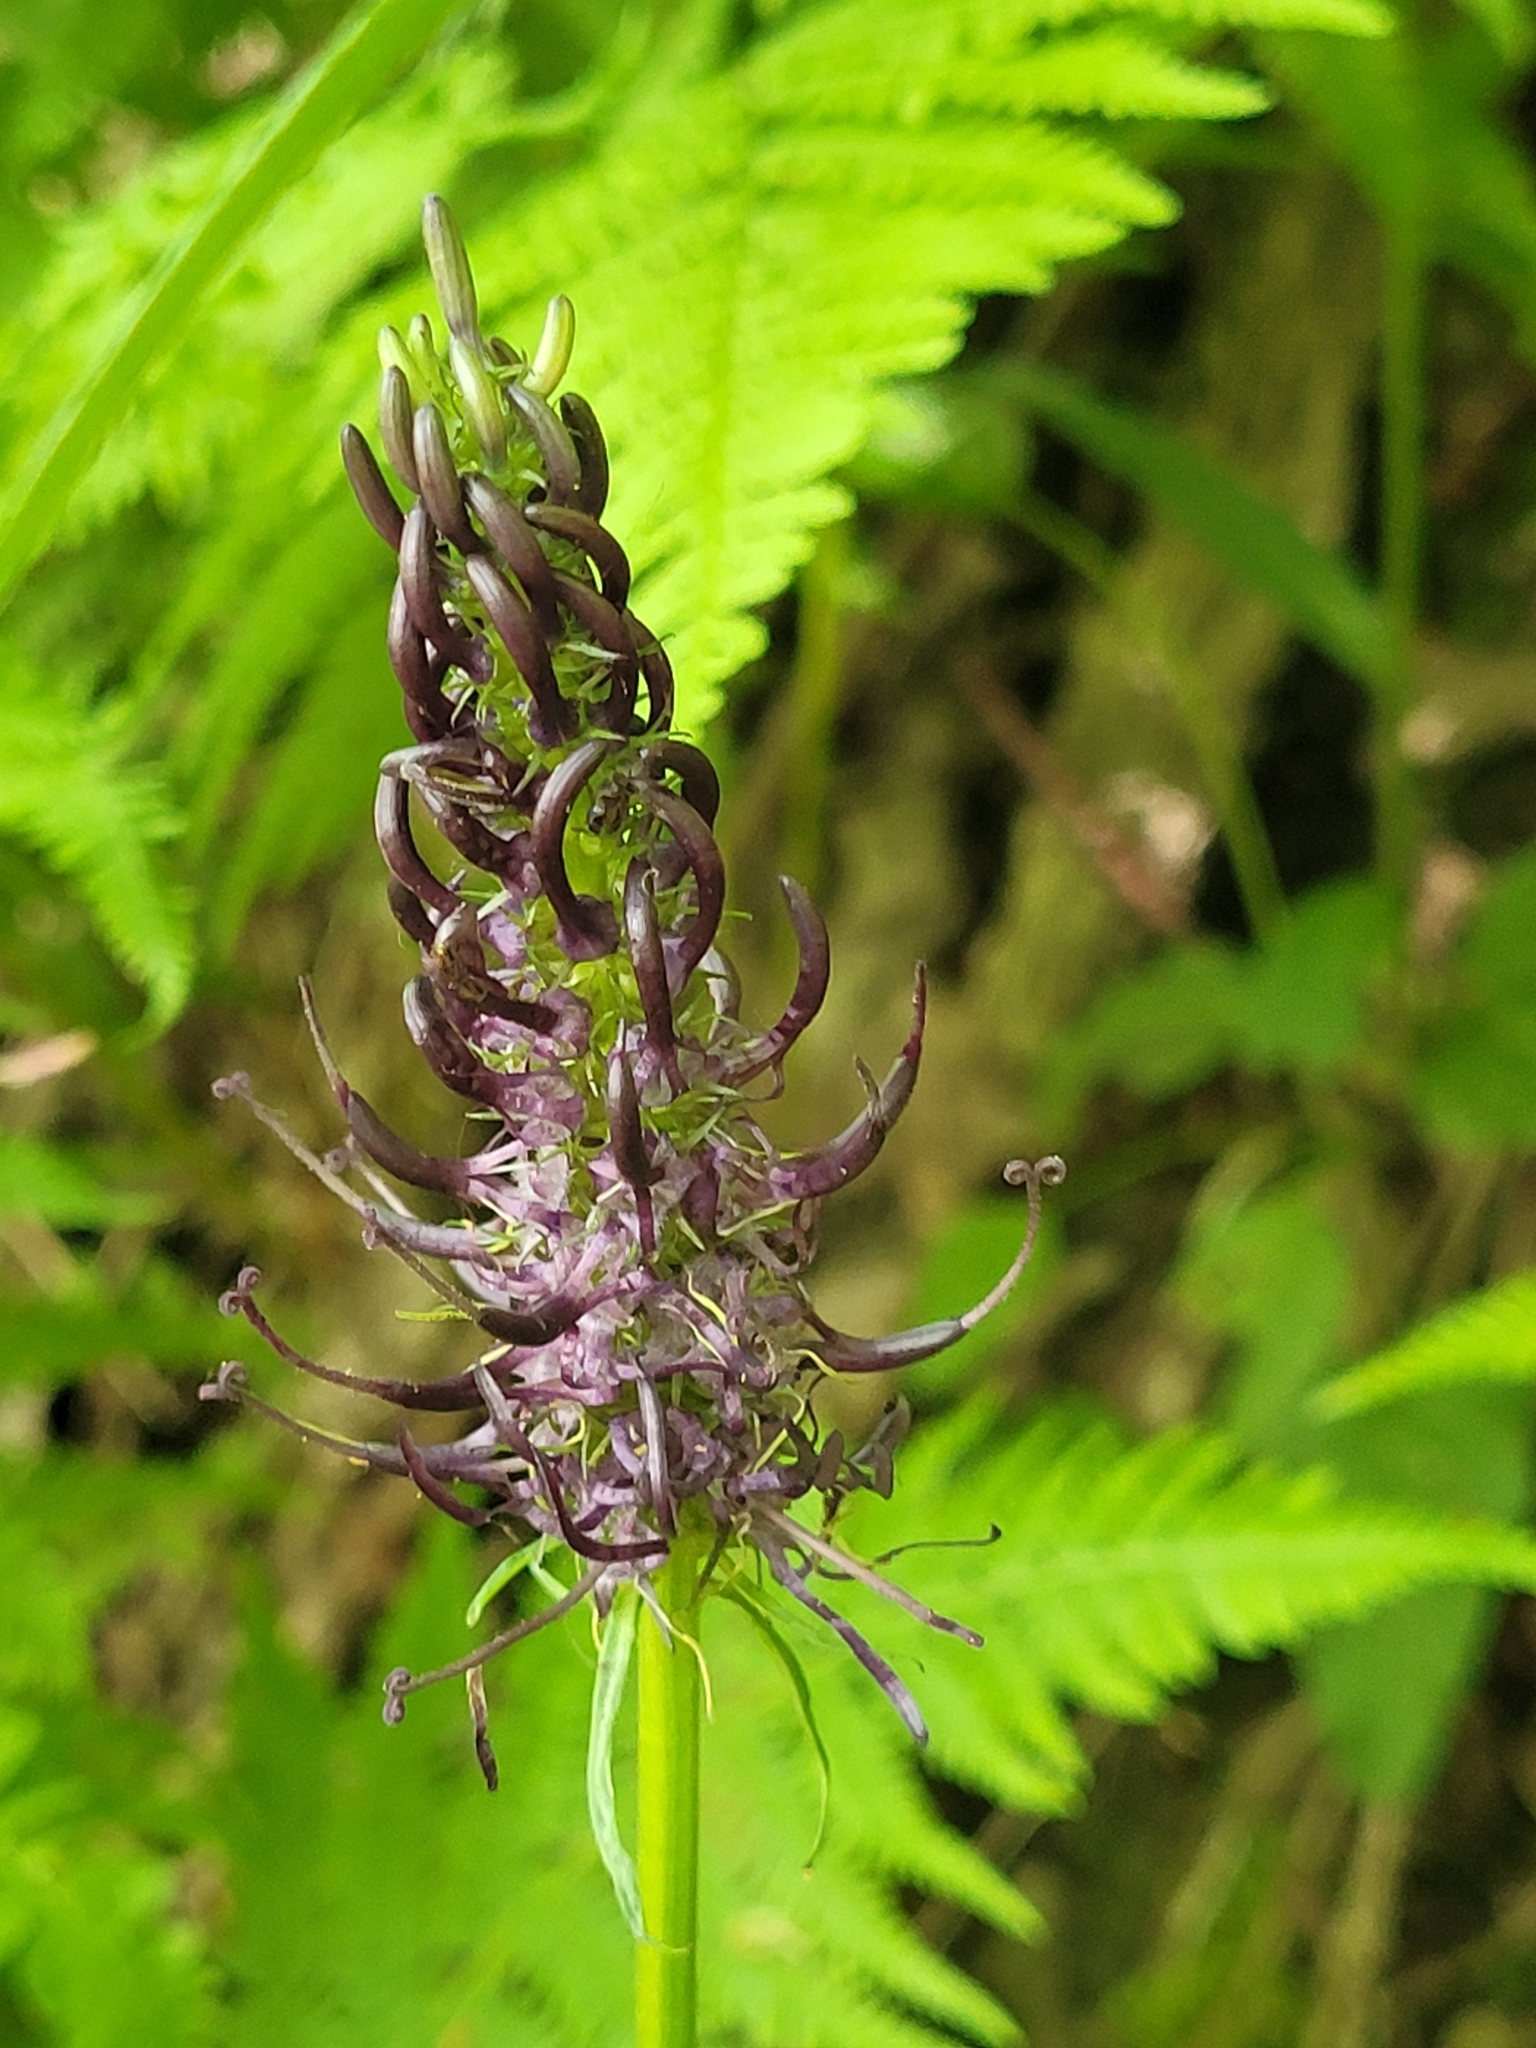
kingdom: Plantae
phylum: Tracheophyta
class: Magnoliopsida
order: Asterales
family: Campanulaceae
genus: Phyteuma
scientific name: Phyteuma nigrum
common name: Black rampion
